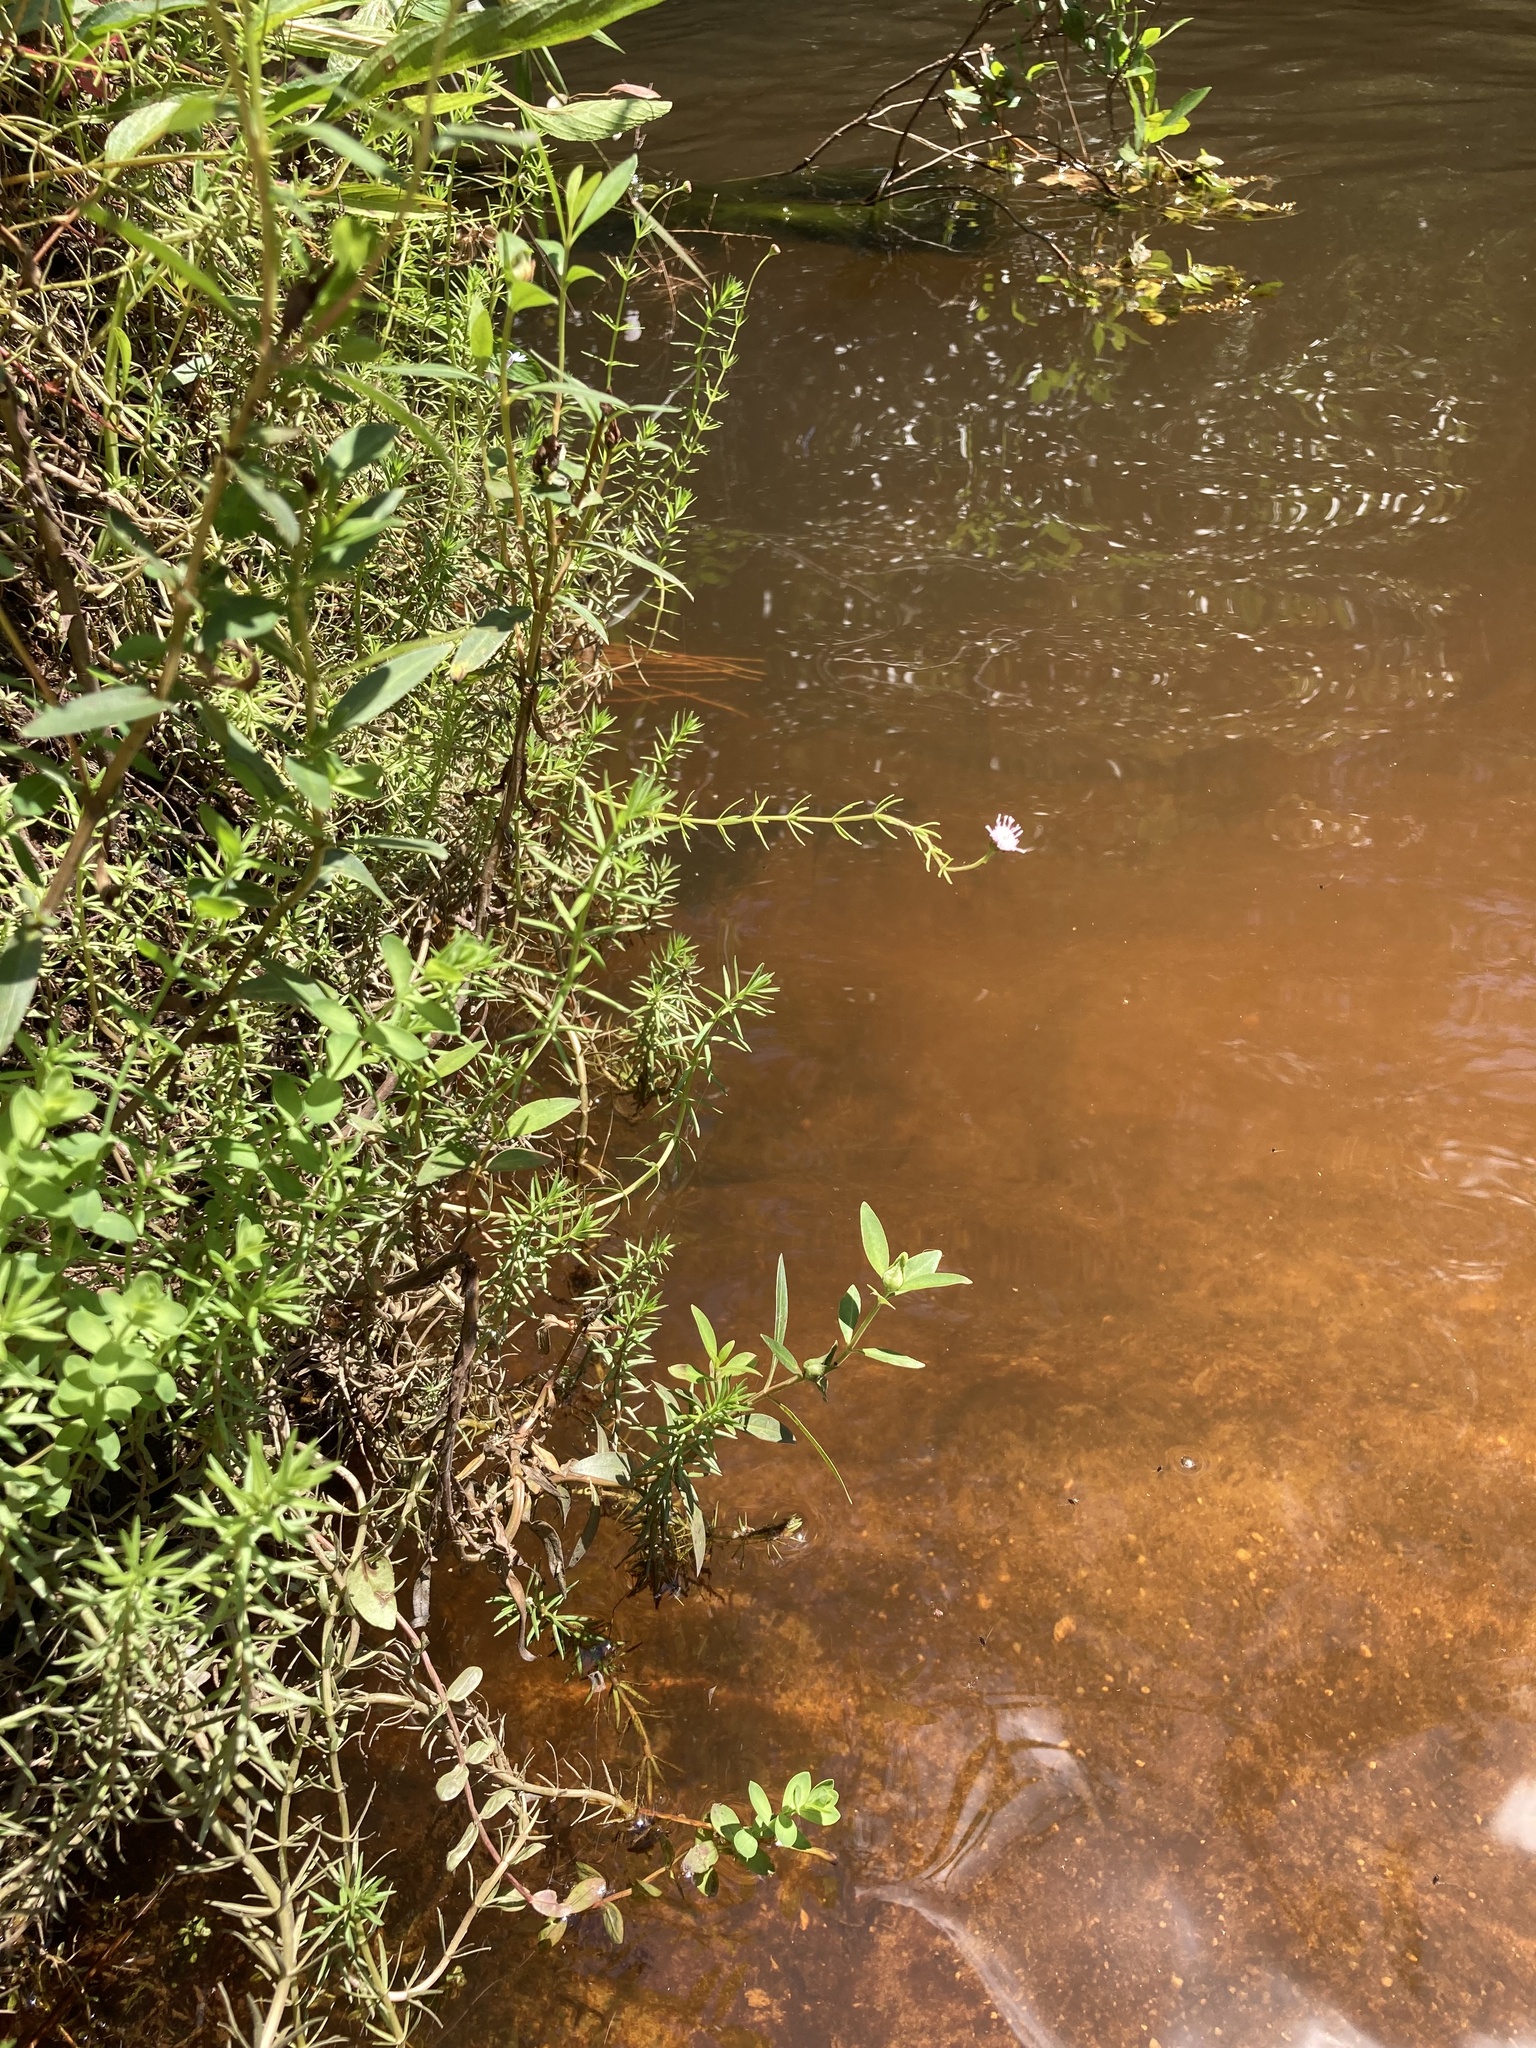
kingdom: Plantae
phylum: Tracheophyta
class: Magnoliopsida
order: Asterales
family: Asteraceae
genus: Sclerolepis
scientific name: Sclerolepis uniflora
